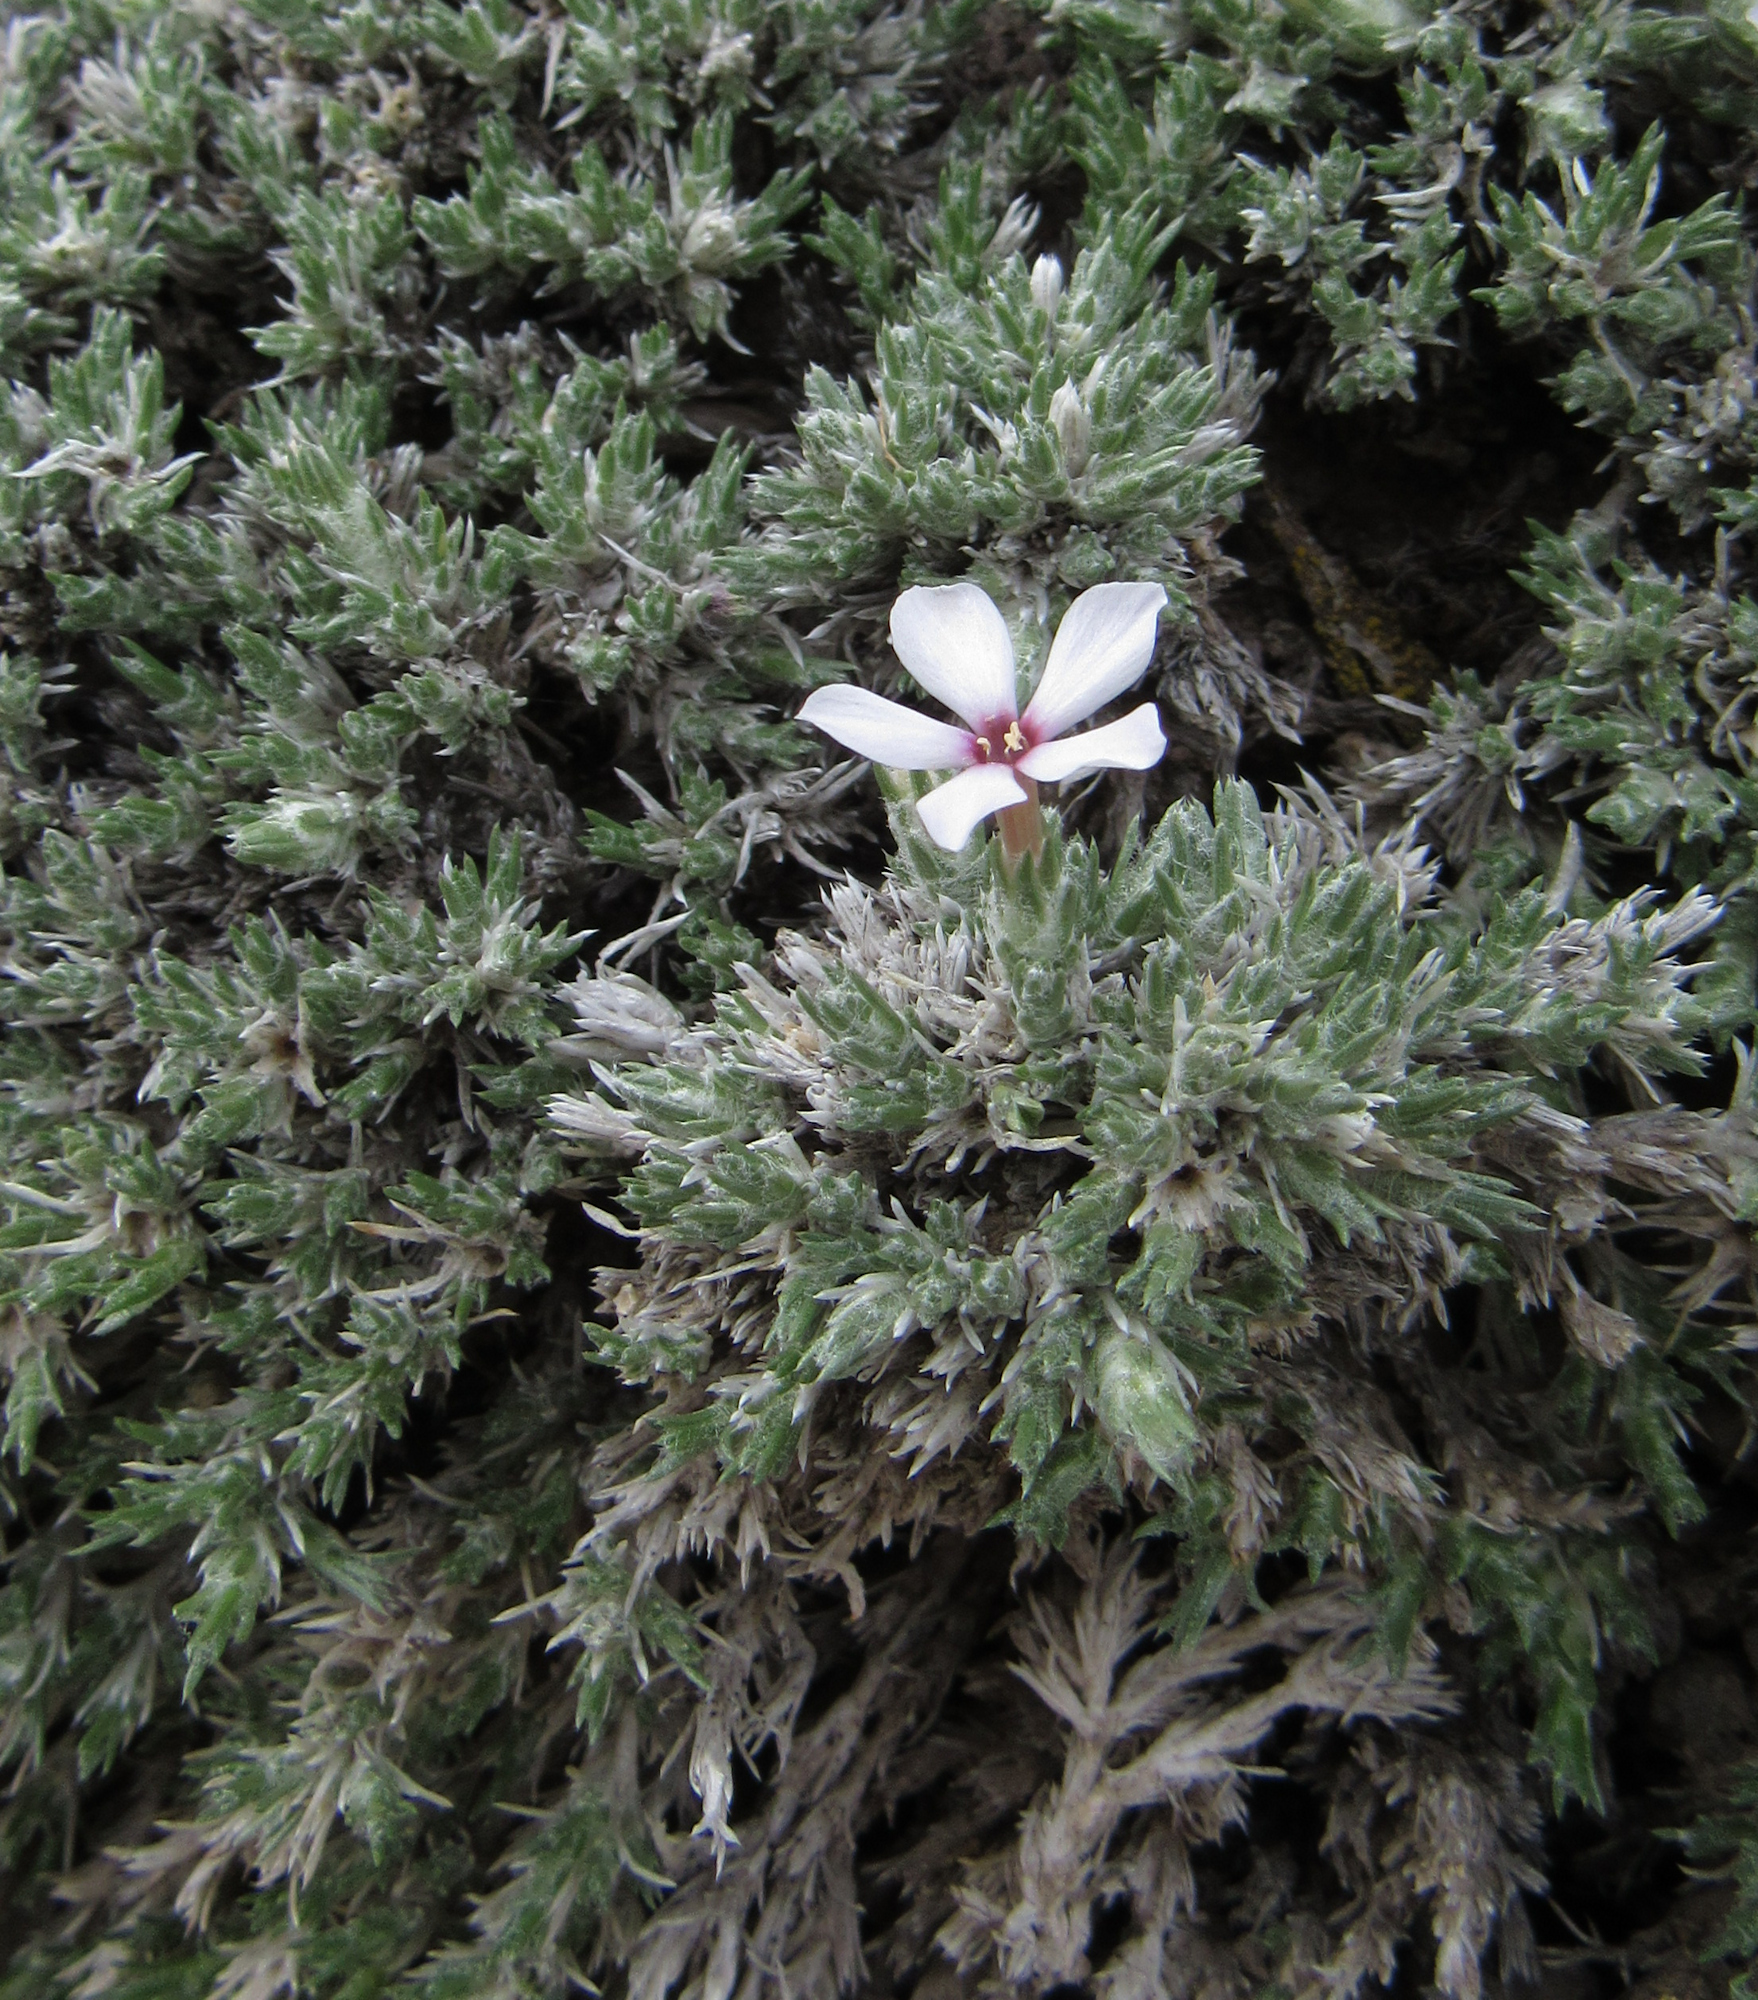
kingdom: Plantae
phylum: Tracheophyta
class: Magnoliopsida
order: Ericales
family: Polemoniaceae
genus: Phlox
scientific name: Phlox hoodii
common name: Moss phlox
